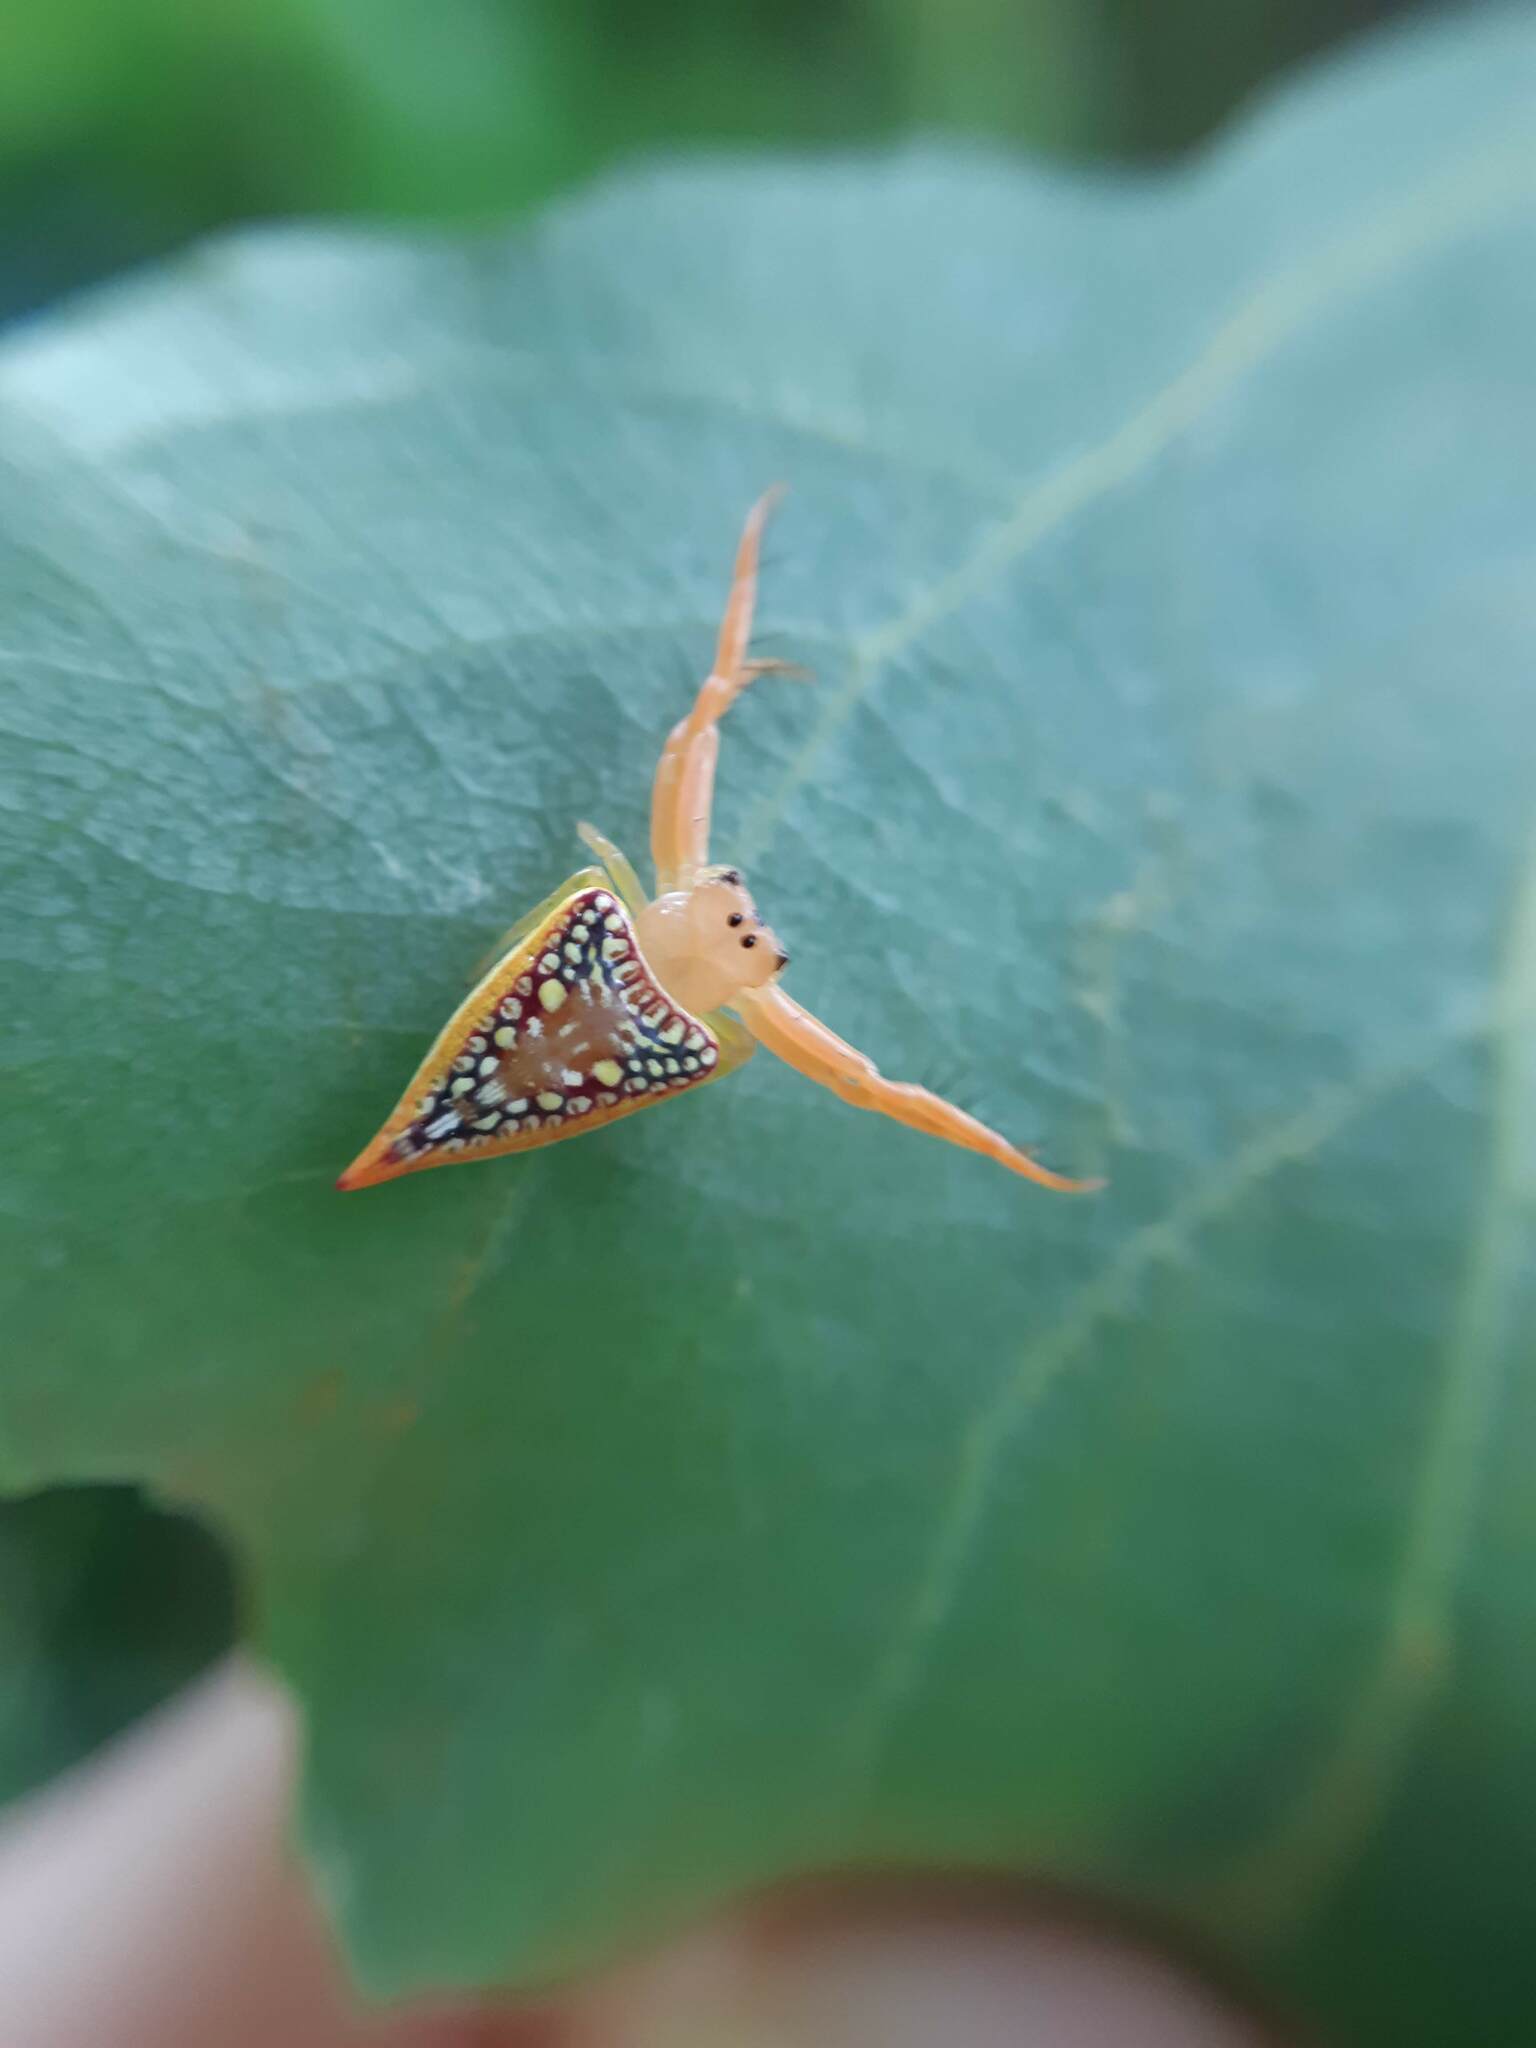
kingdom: Animalia
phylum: Arthropoda
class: Arachnida
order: Araneae
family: Arkyidae
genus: Arkys
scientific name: Arkys walckenaeri
